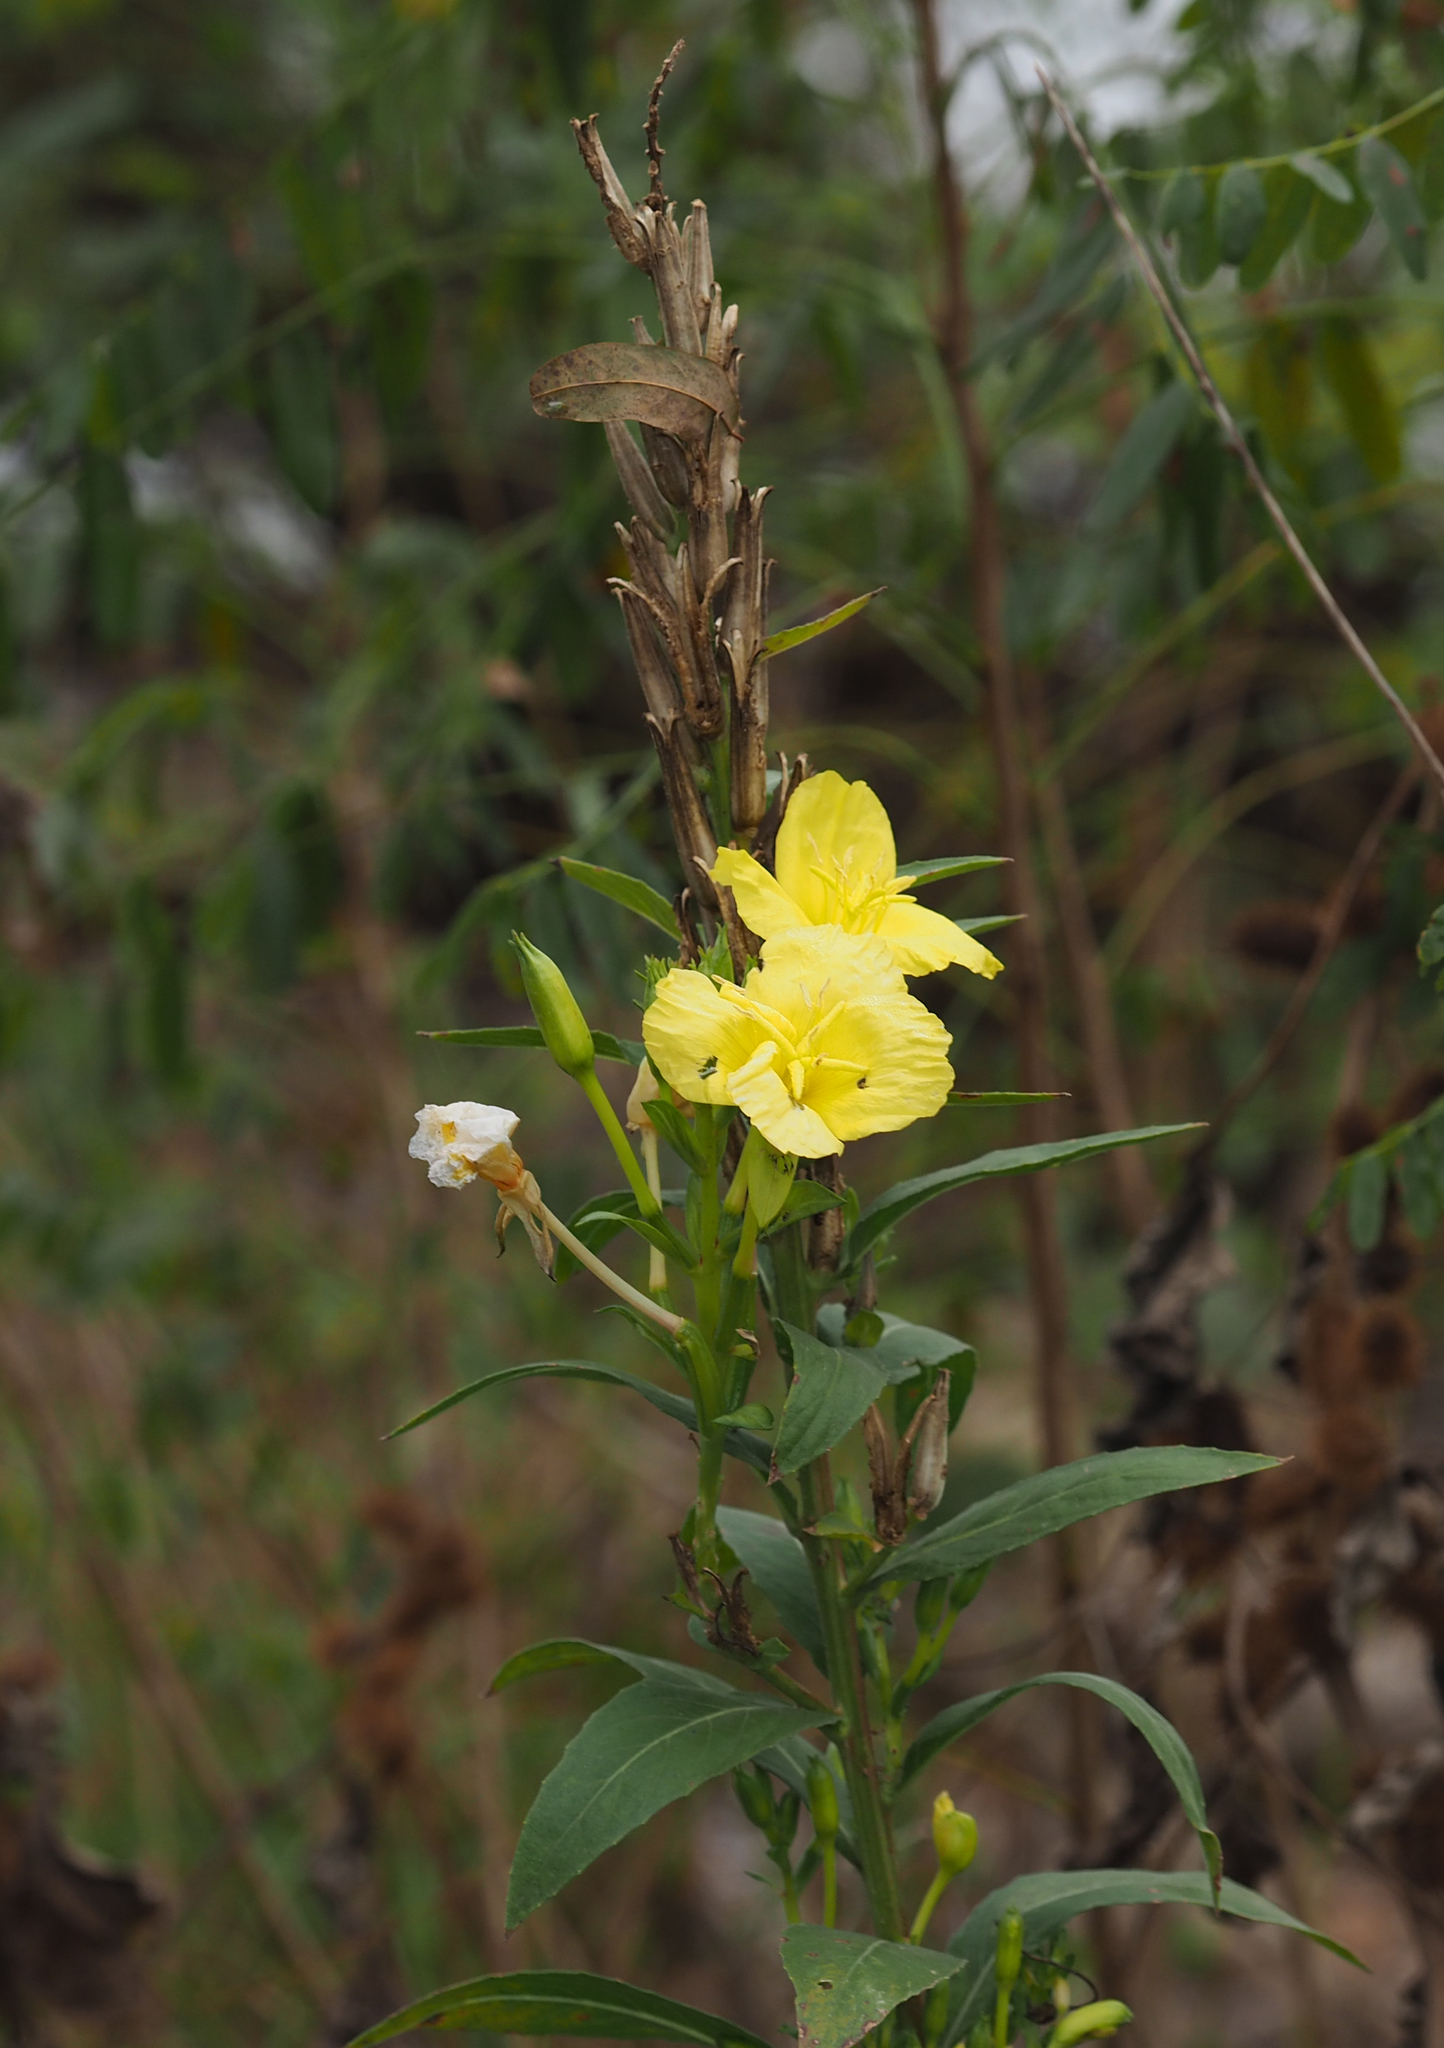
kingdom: Plantae
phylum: Tracheophyta
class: Magnoliopsida
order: Myrtales
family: Onagraceae
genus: Oenothera
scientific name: Oenothera biennis
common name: Common evening-primrose
